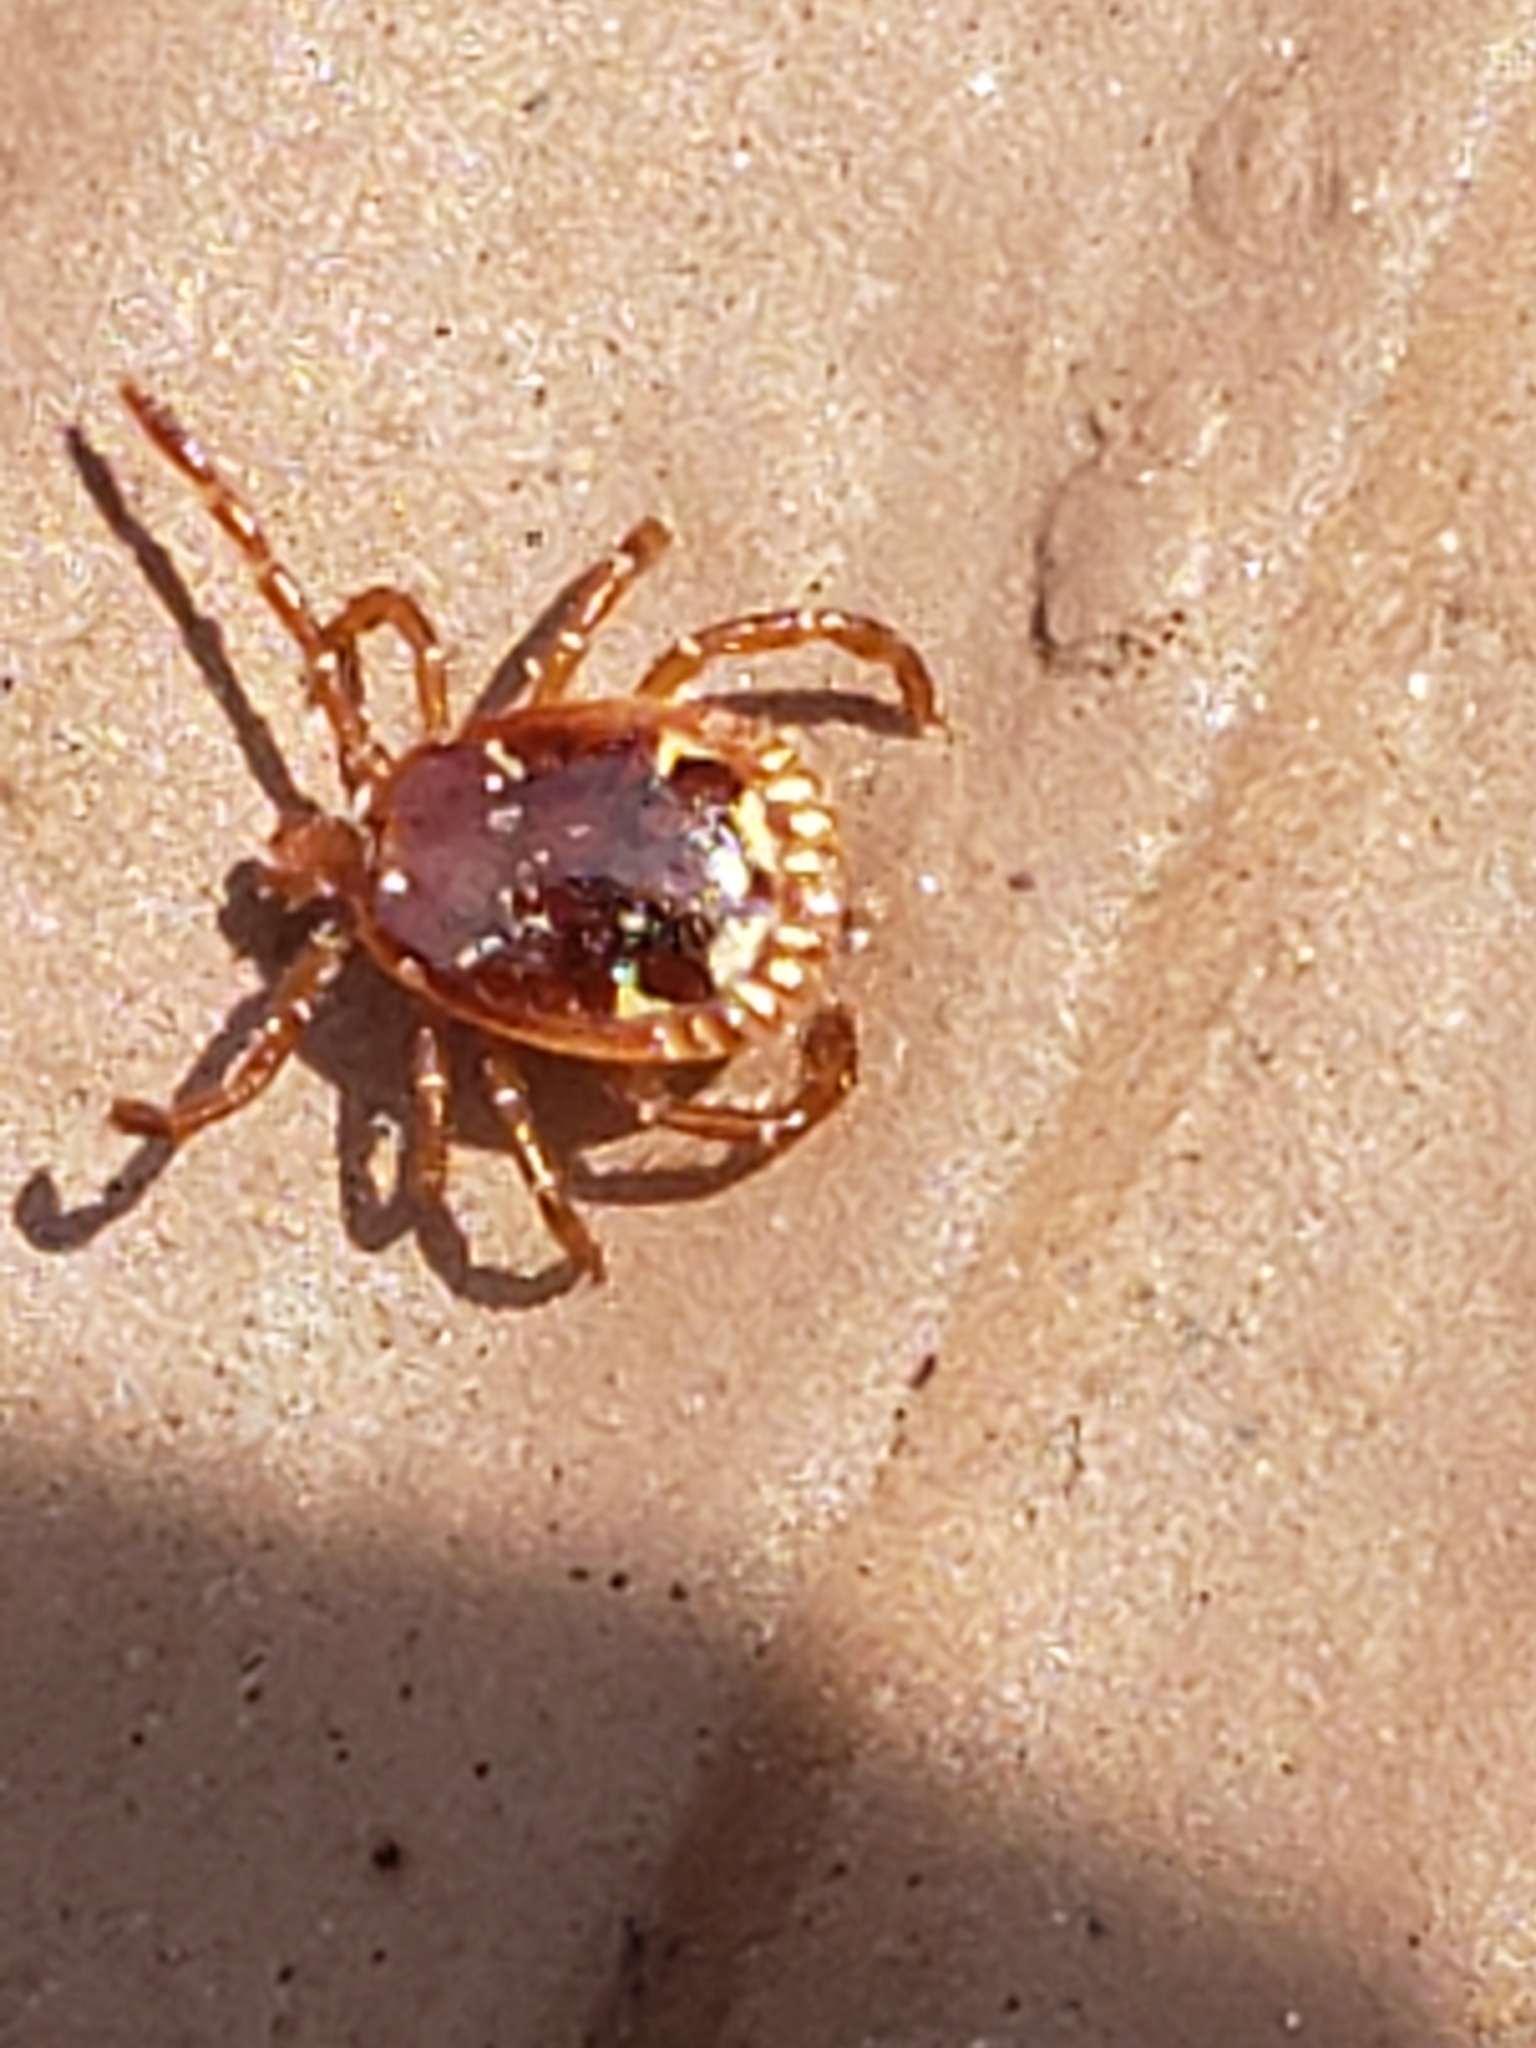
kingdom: Animalia
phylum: Arthropoda
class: Arachnida
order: Ixodida
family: Ixodidae
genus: Amblyomma
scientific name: Amblyomma americanum
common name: Lone star tick
